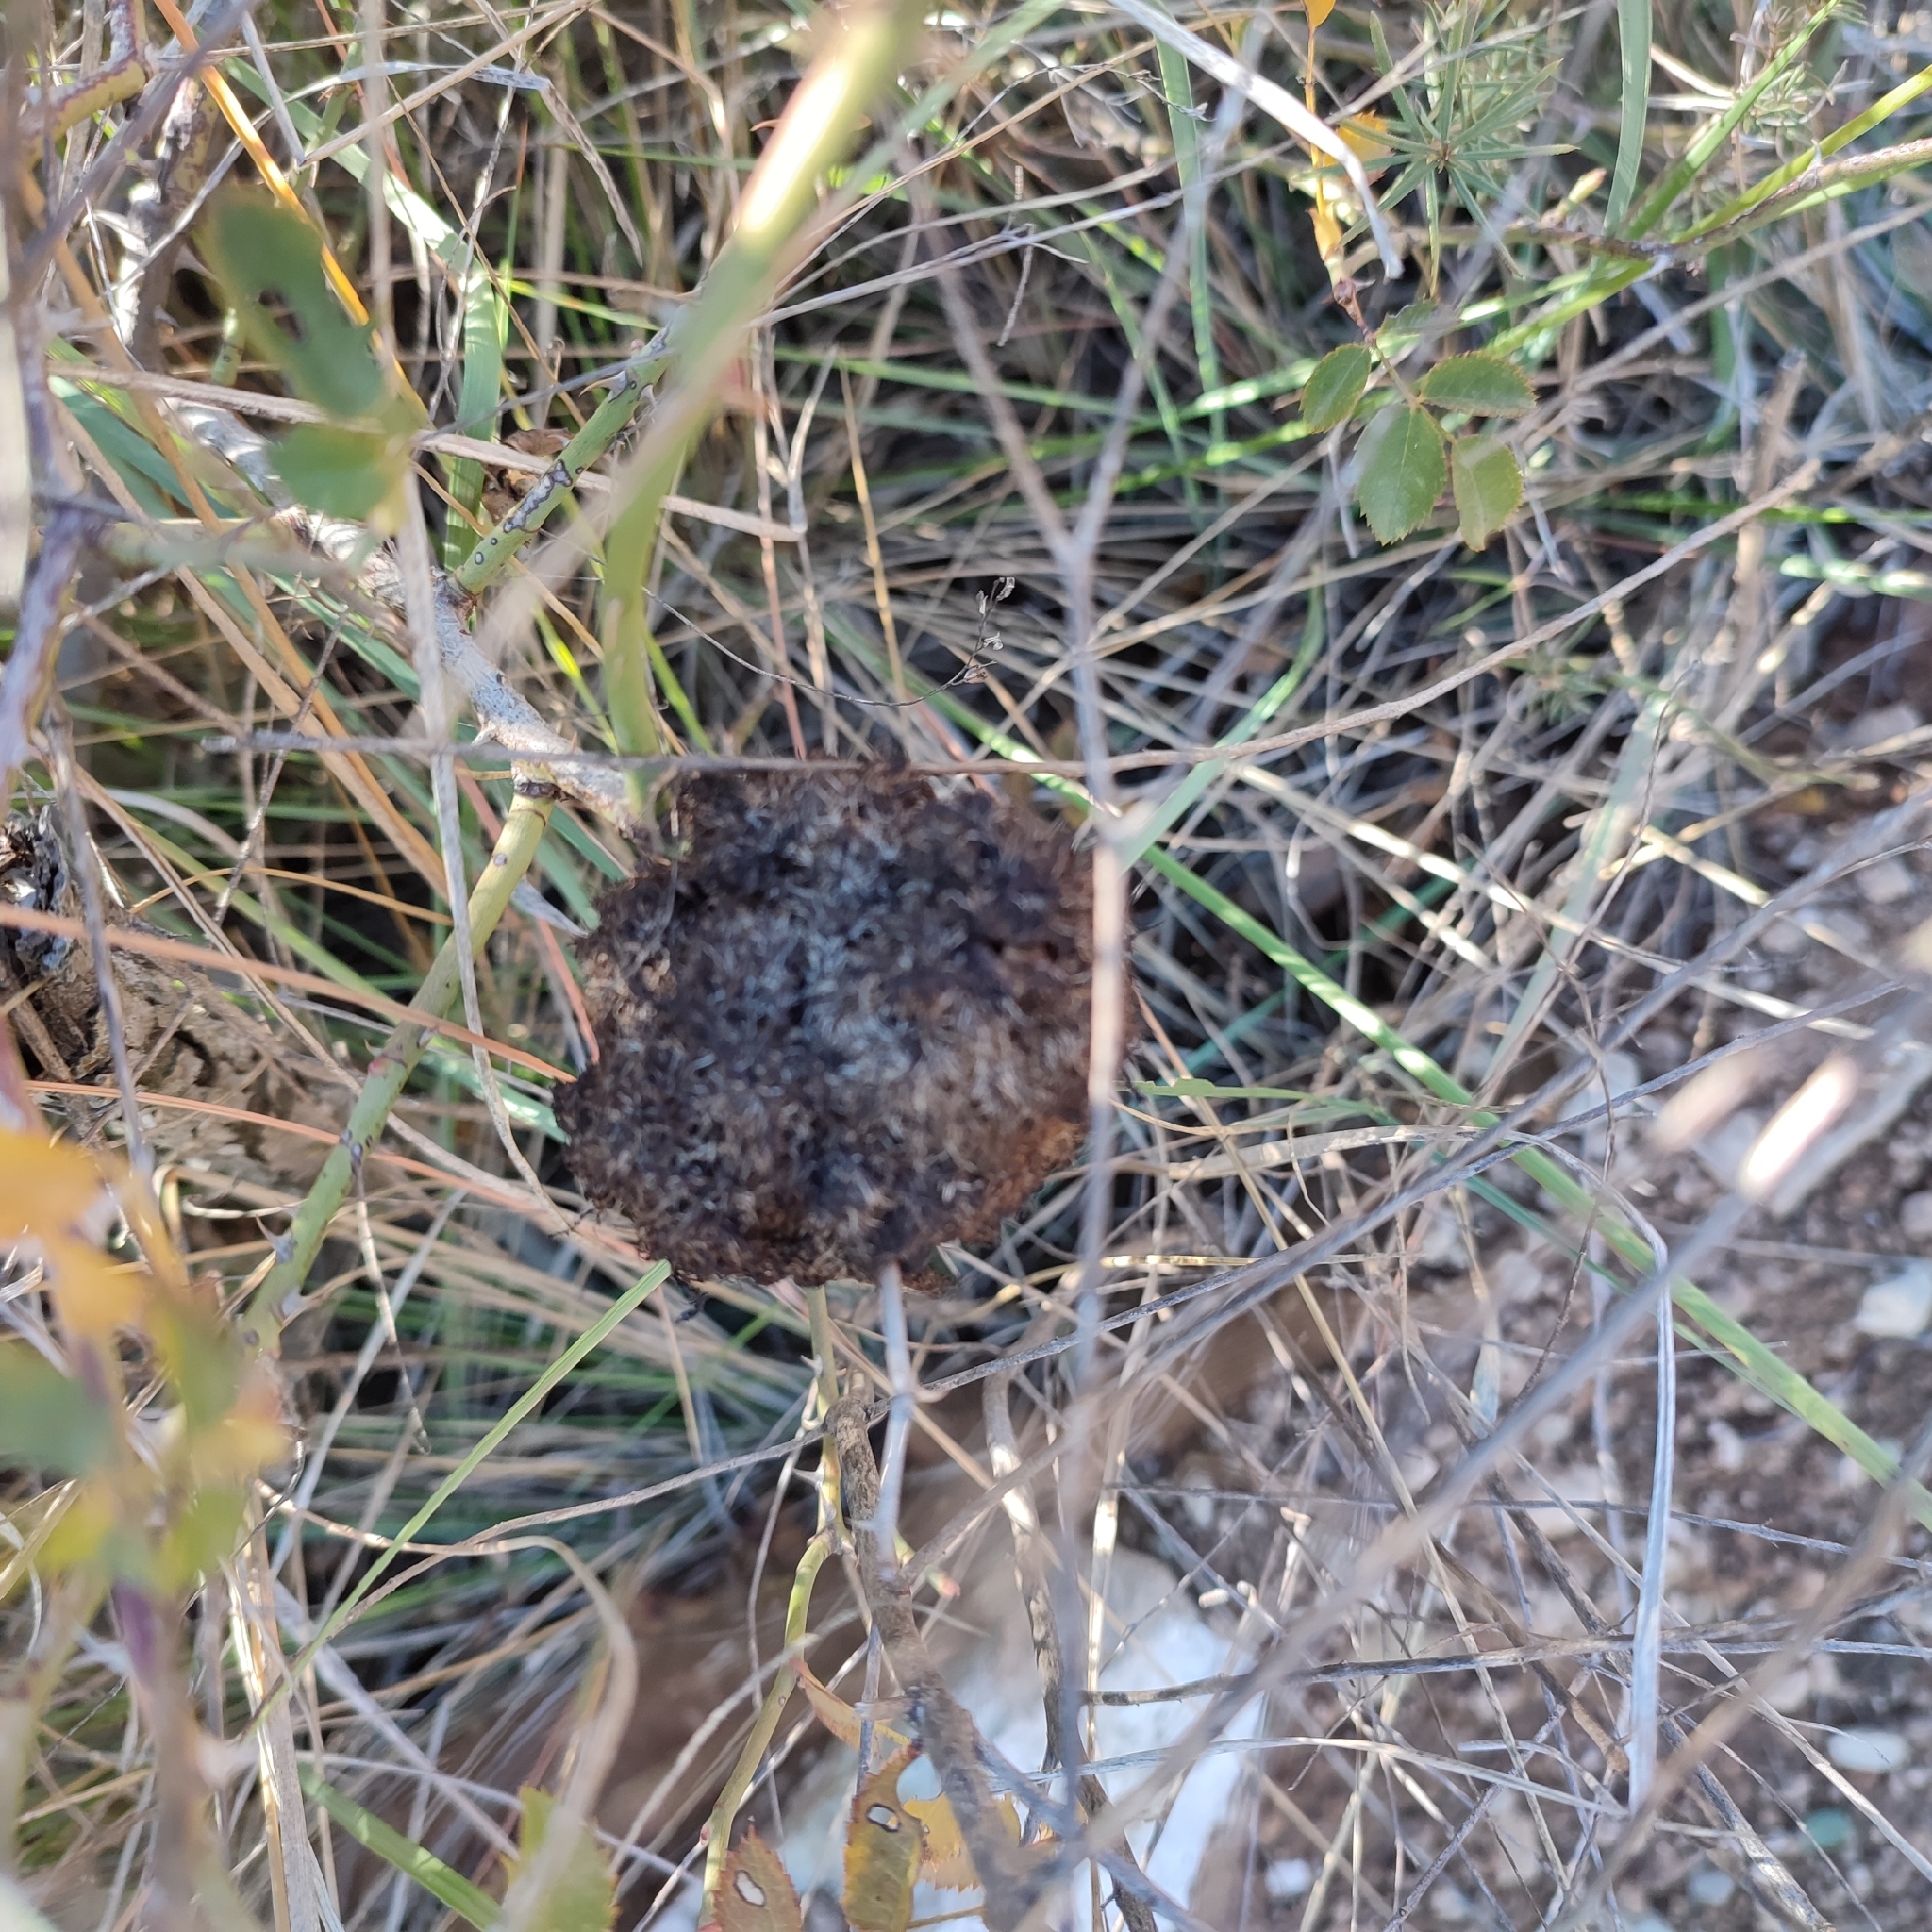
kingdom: Animalia
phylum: Arthropoda
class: Insecta
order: Hymenoptera
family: Cynipidae
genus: Diplolepis
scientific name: Diplolepis rosae
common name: Bedeguar gall
